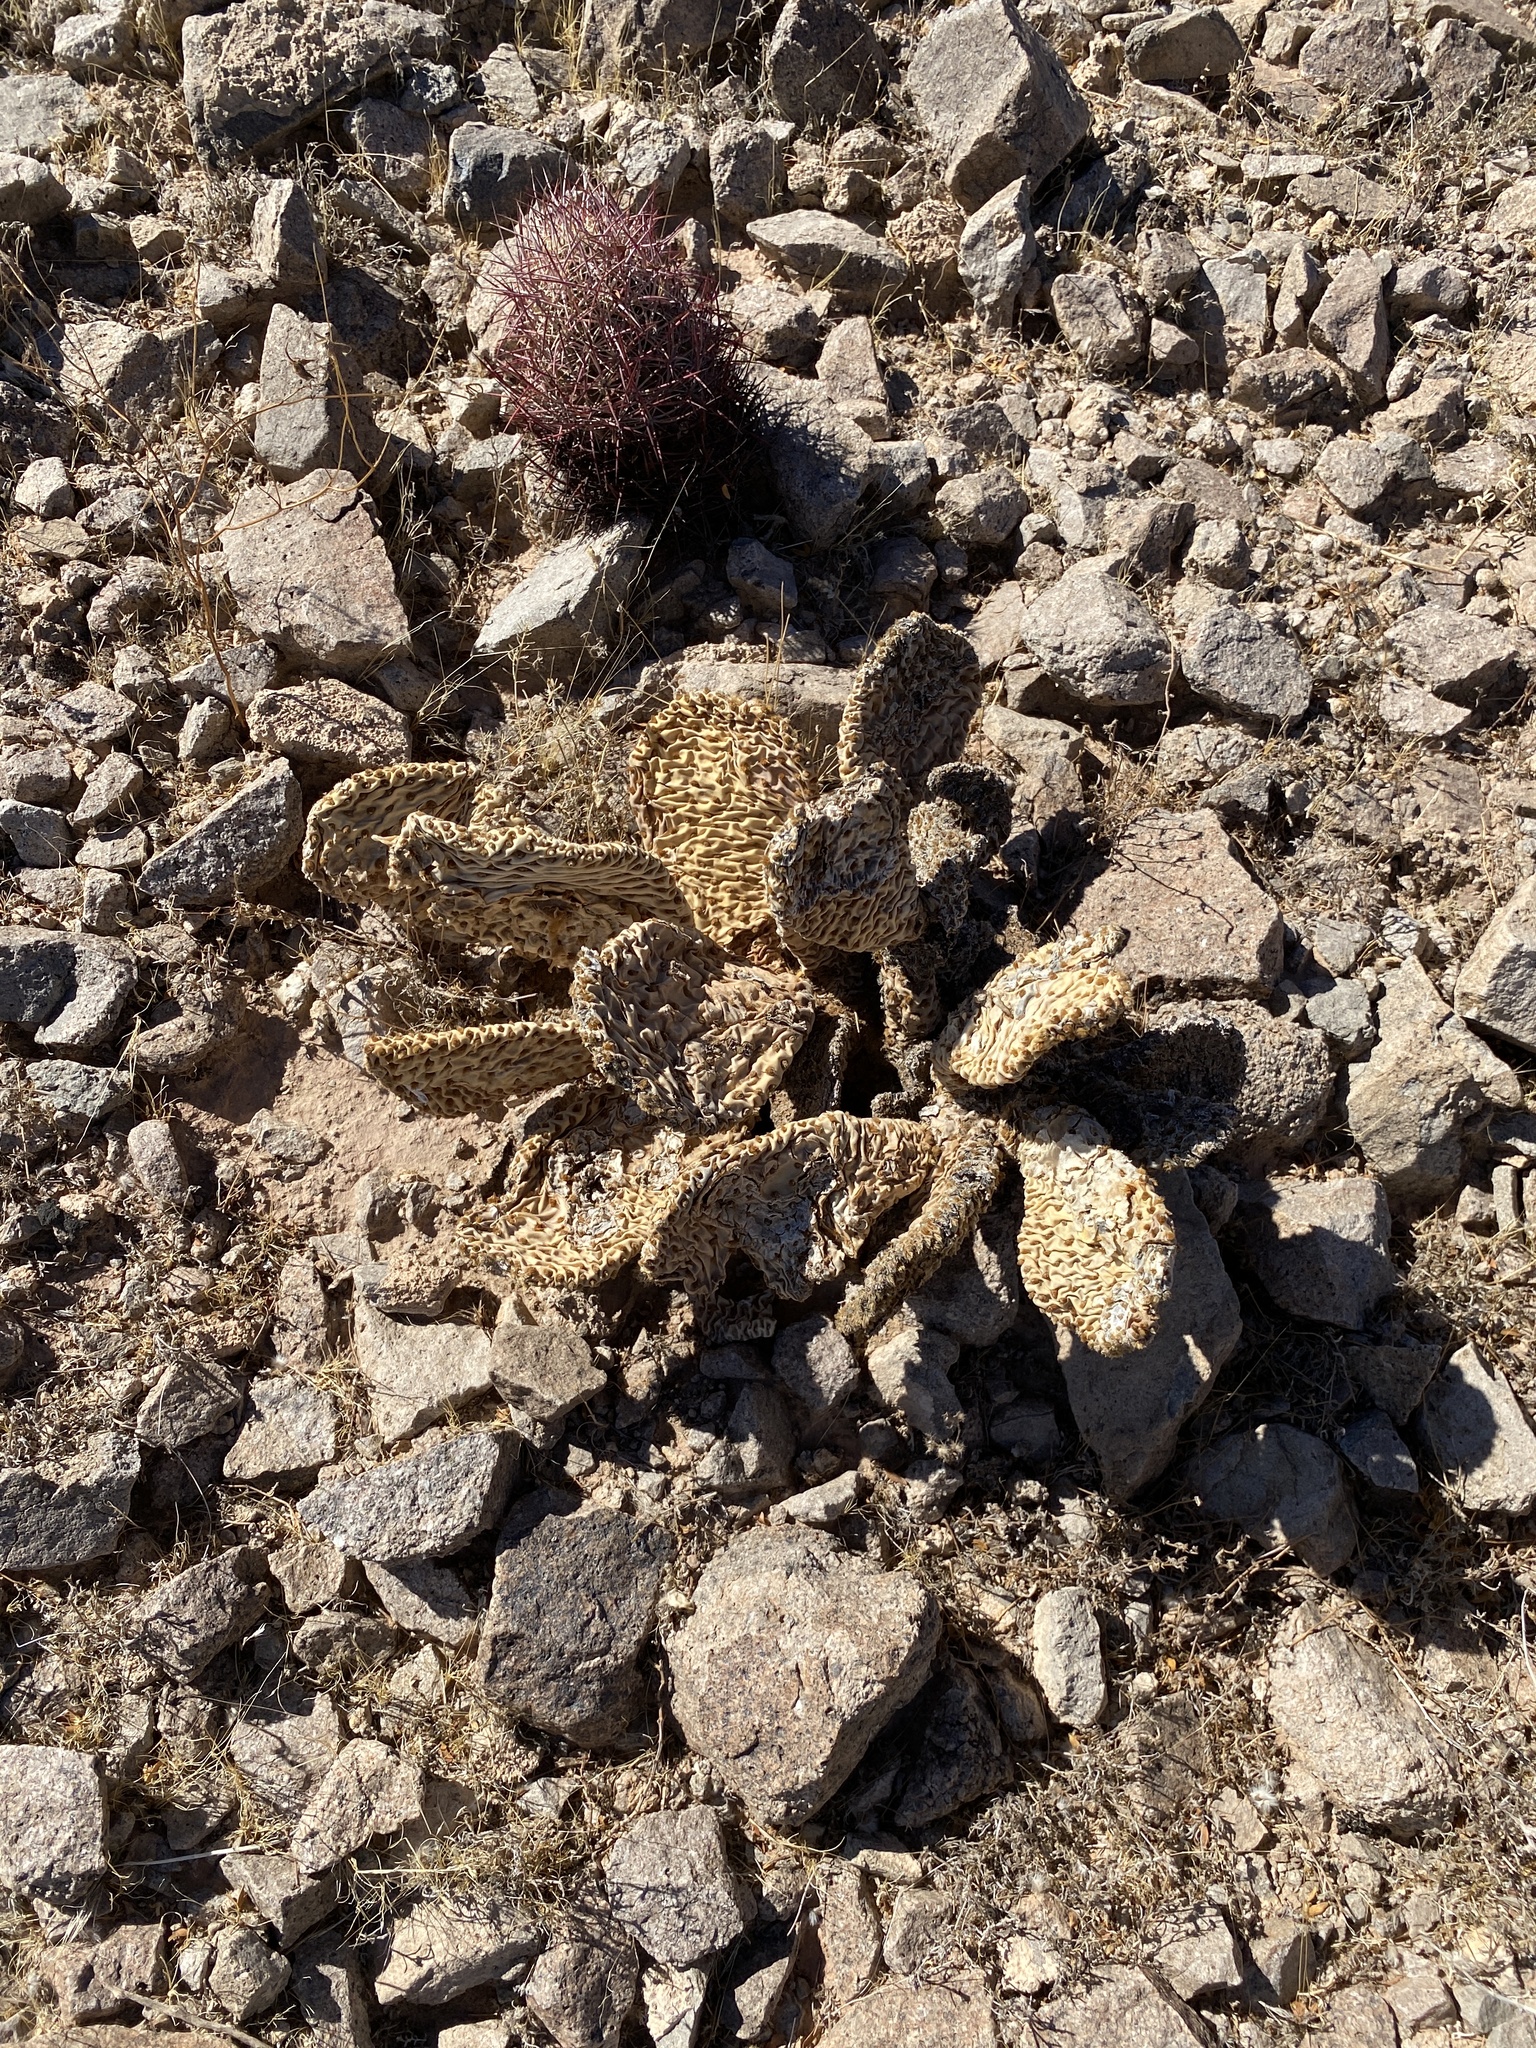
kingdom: Plantae
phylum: Tracheophyta
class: Magnoliopsida
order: Caryophyllales
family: Cactaceae
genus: Opuntia
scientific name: Opuntia basilaris
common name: Beavertail prickly-pear
